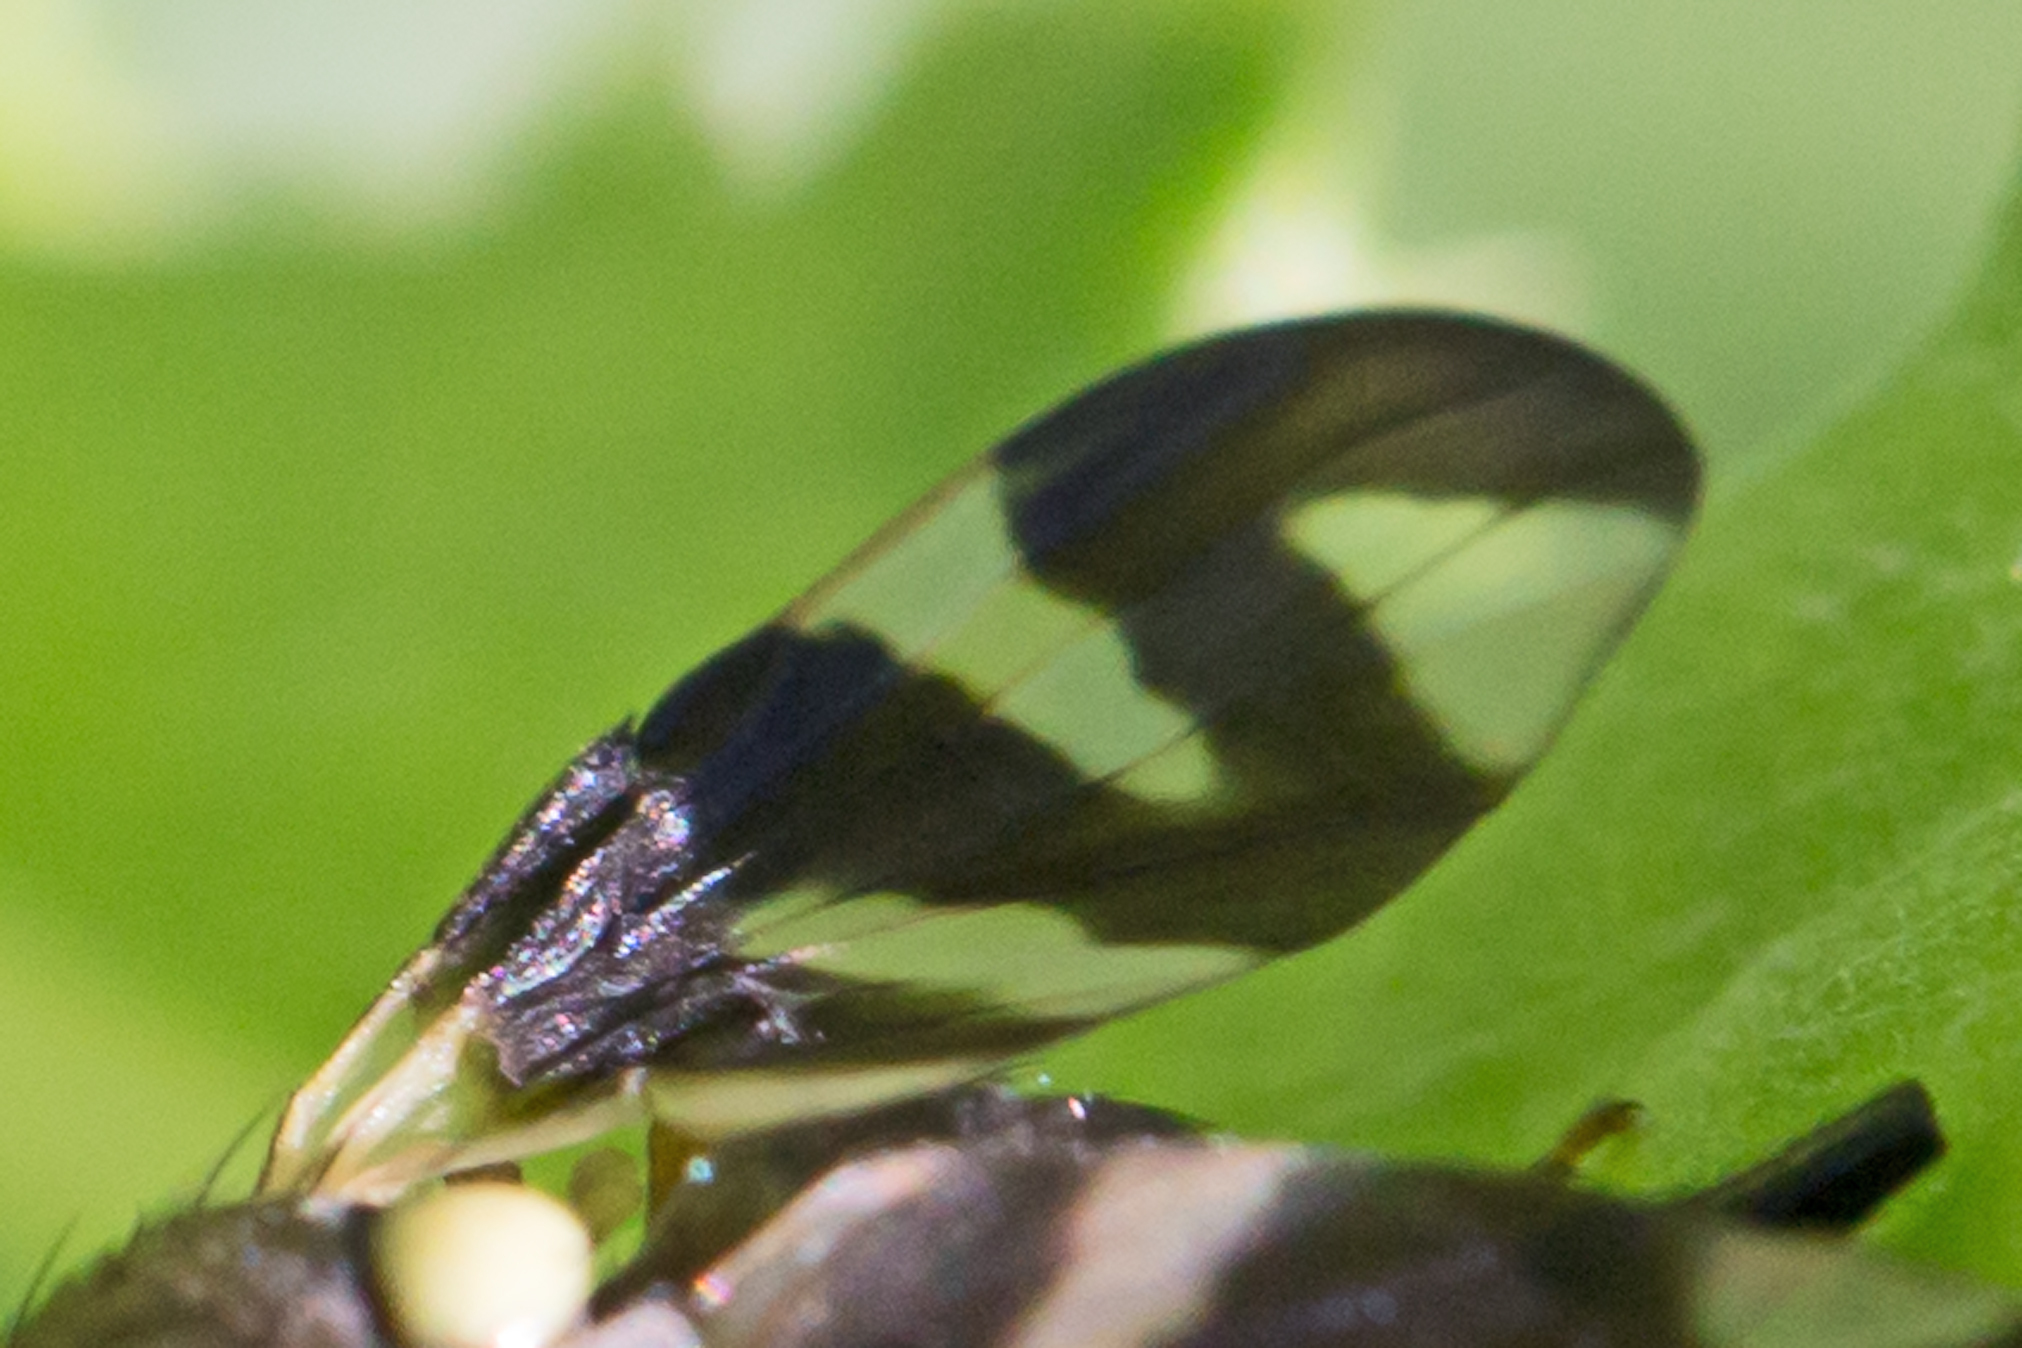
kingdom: Animalia
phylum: Arthropoda
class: Insecta
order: Diptera
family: Tephritidae
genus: Urophora
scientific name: Urophora cardui
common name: Fruit fly
